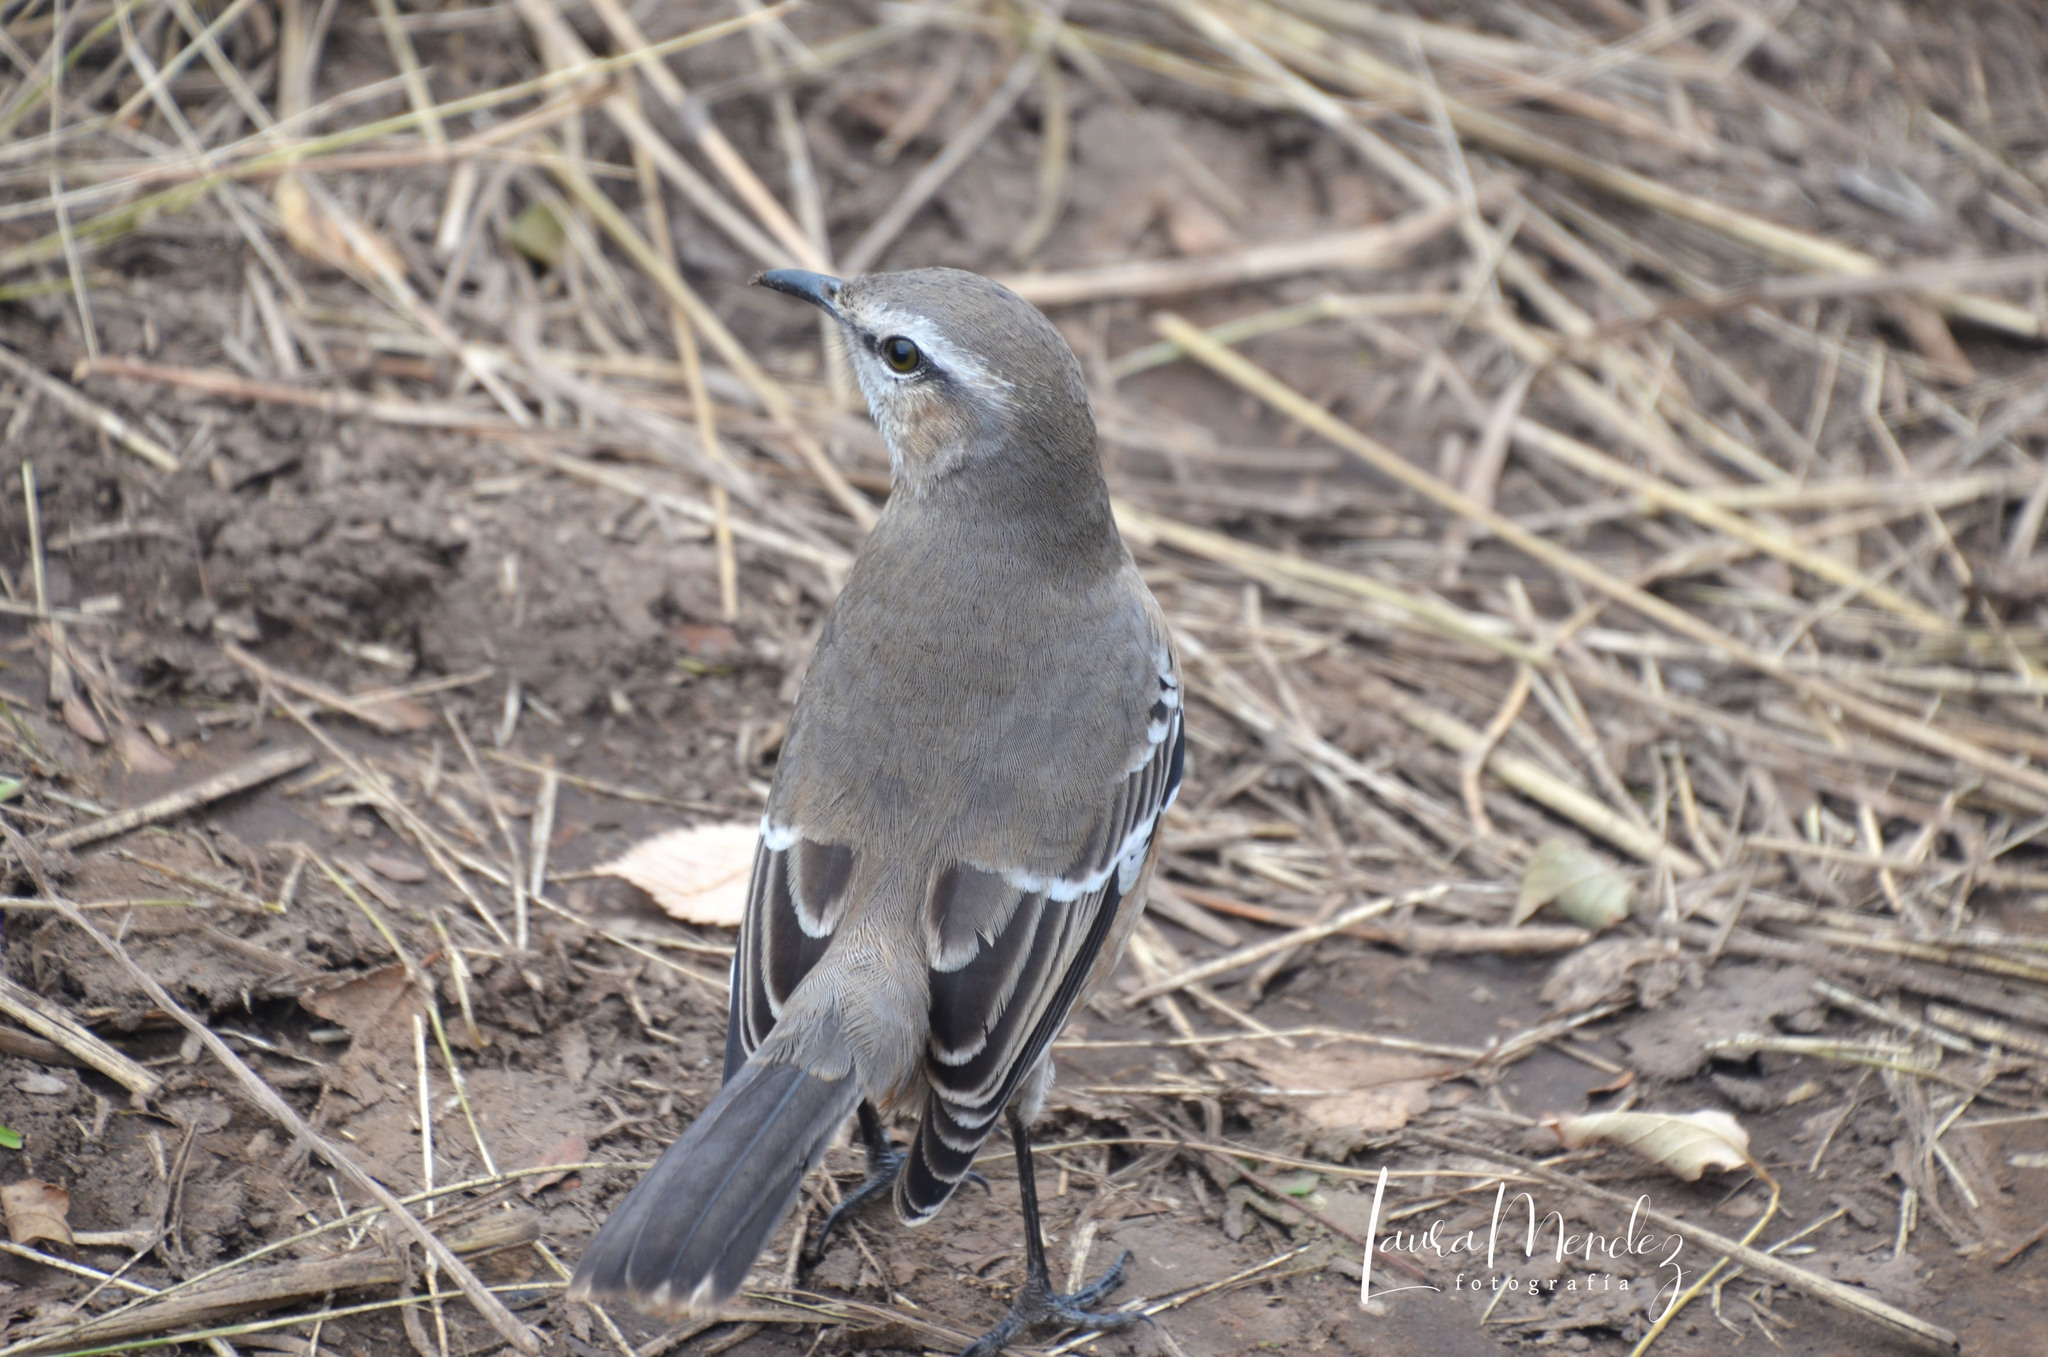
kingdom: Animalia
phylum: Chordata
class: Aves
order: Passeriformes
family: Mimidae
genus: Mimus
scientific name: Mimus patagonicus
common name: Patagonian mockingbird
